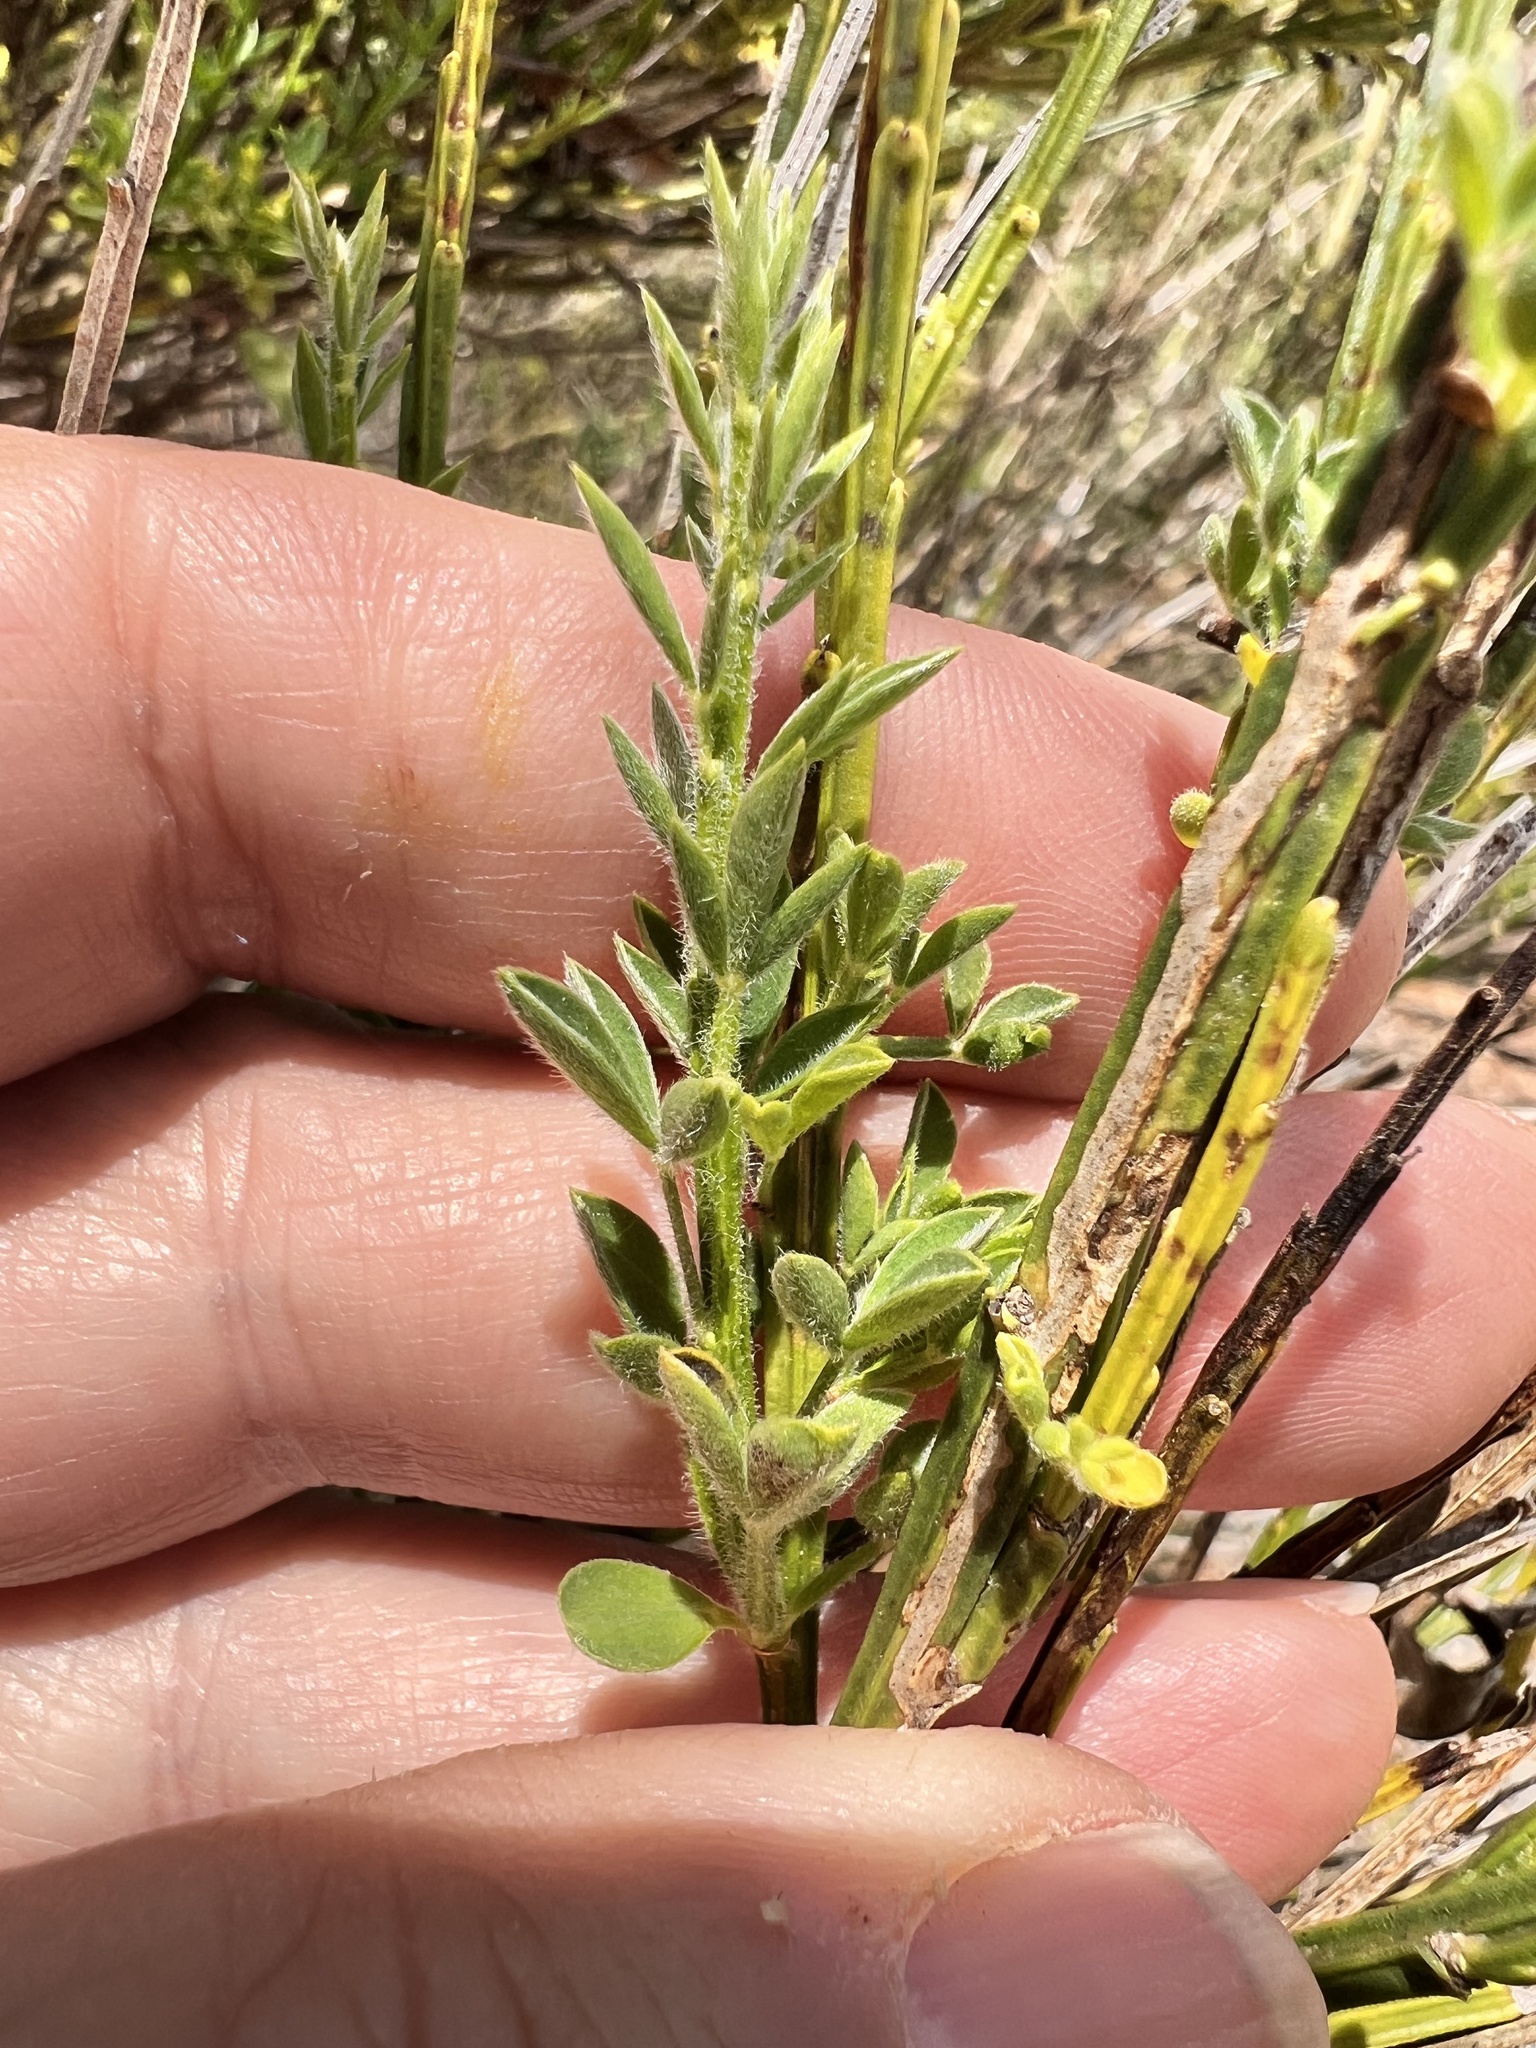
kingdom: Plantae
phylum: Tracheophyta
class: Magnoliopsida
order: Fabales
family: Fabaceae
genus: Cytisus
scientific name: Cytisus scoparius
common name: Scotch broom
